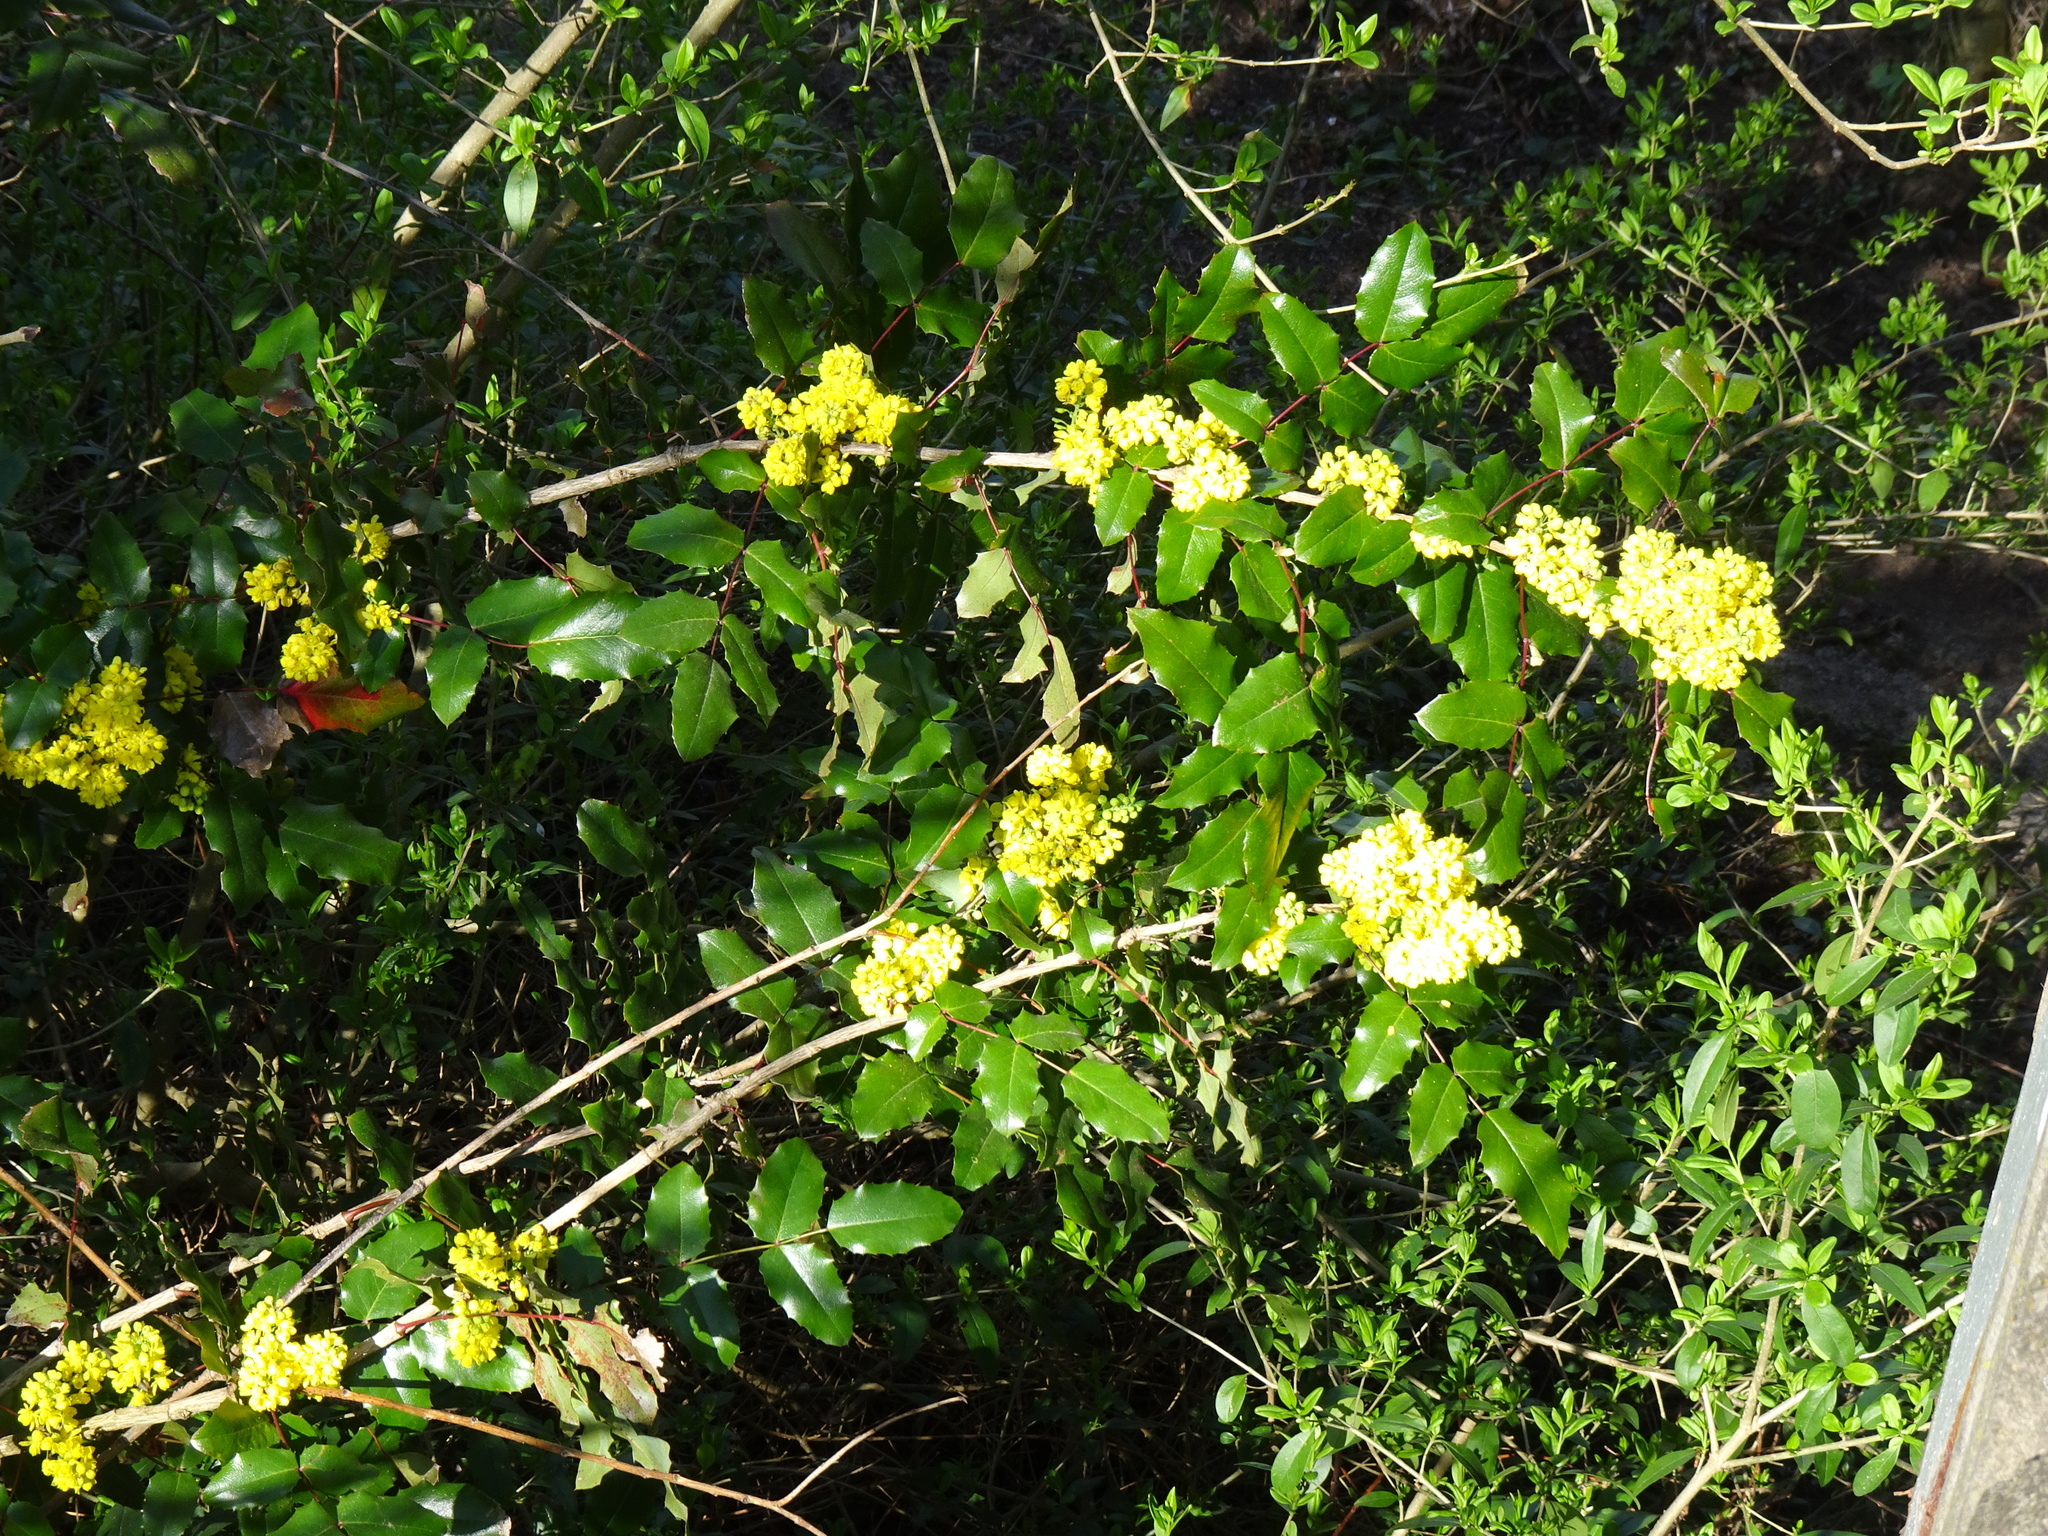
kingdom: Plantae
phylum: Tracheophyta
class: Magnoliopsida
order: Ranunculales
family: Berberidaceae
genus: Mahonia
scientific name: Mahonia aquifolium
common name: Oregon-grape
